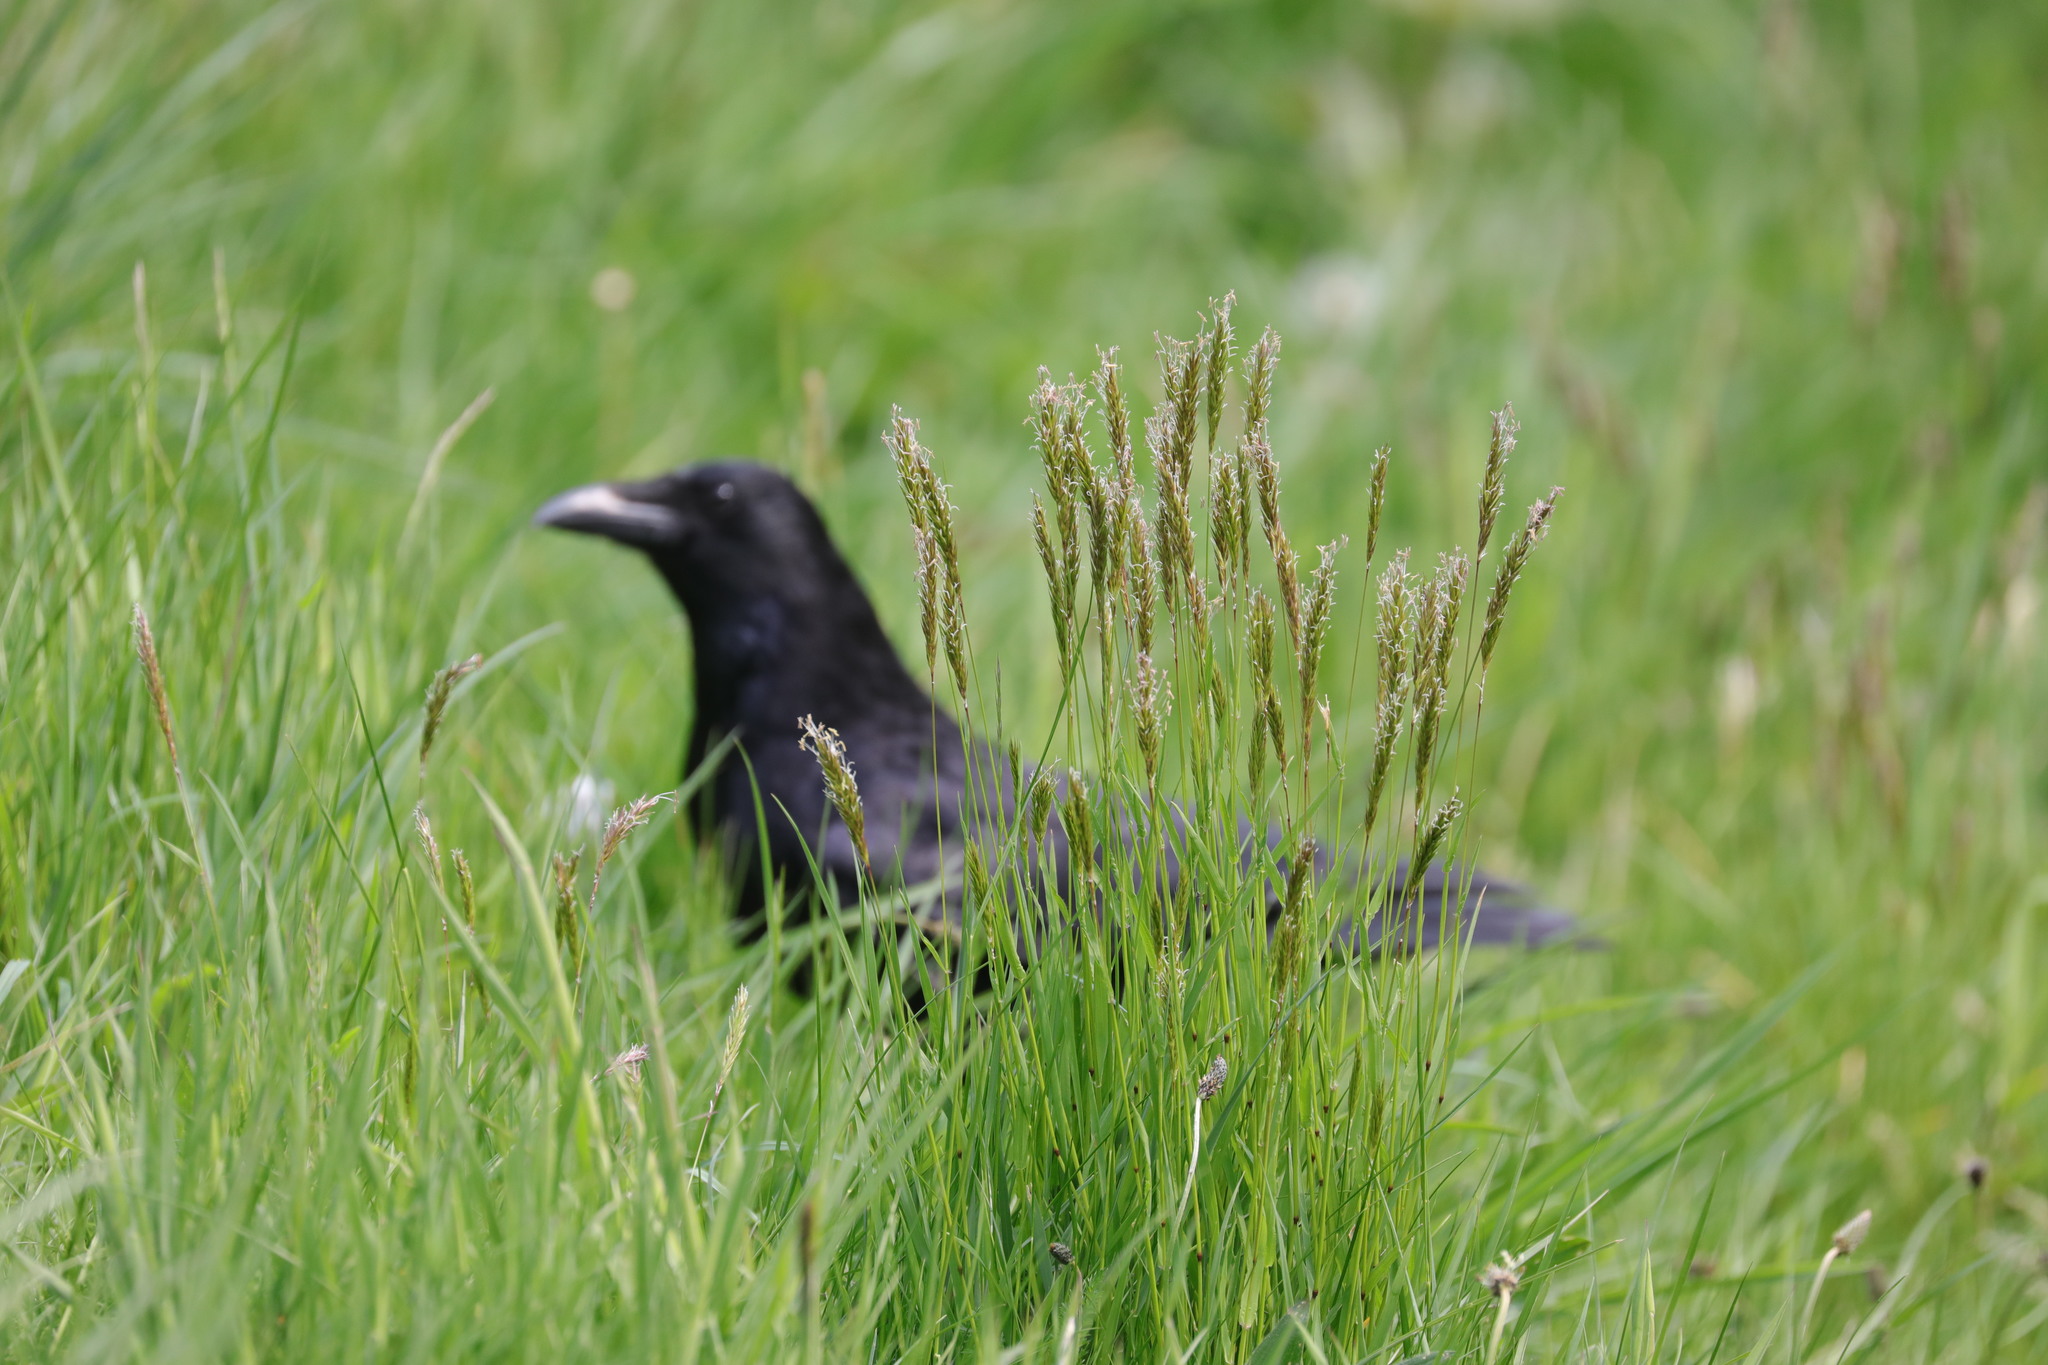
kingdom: Animalia
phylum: Chordata
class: Aves
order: Passeriformes
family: Corvidae
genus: Corvus
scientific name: Corvus corone
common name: Carrion crow
